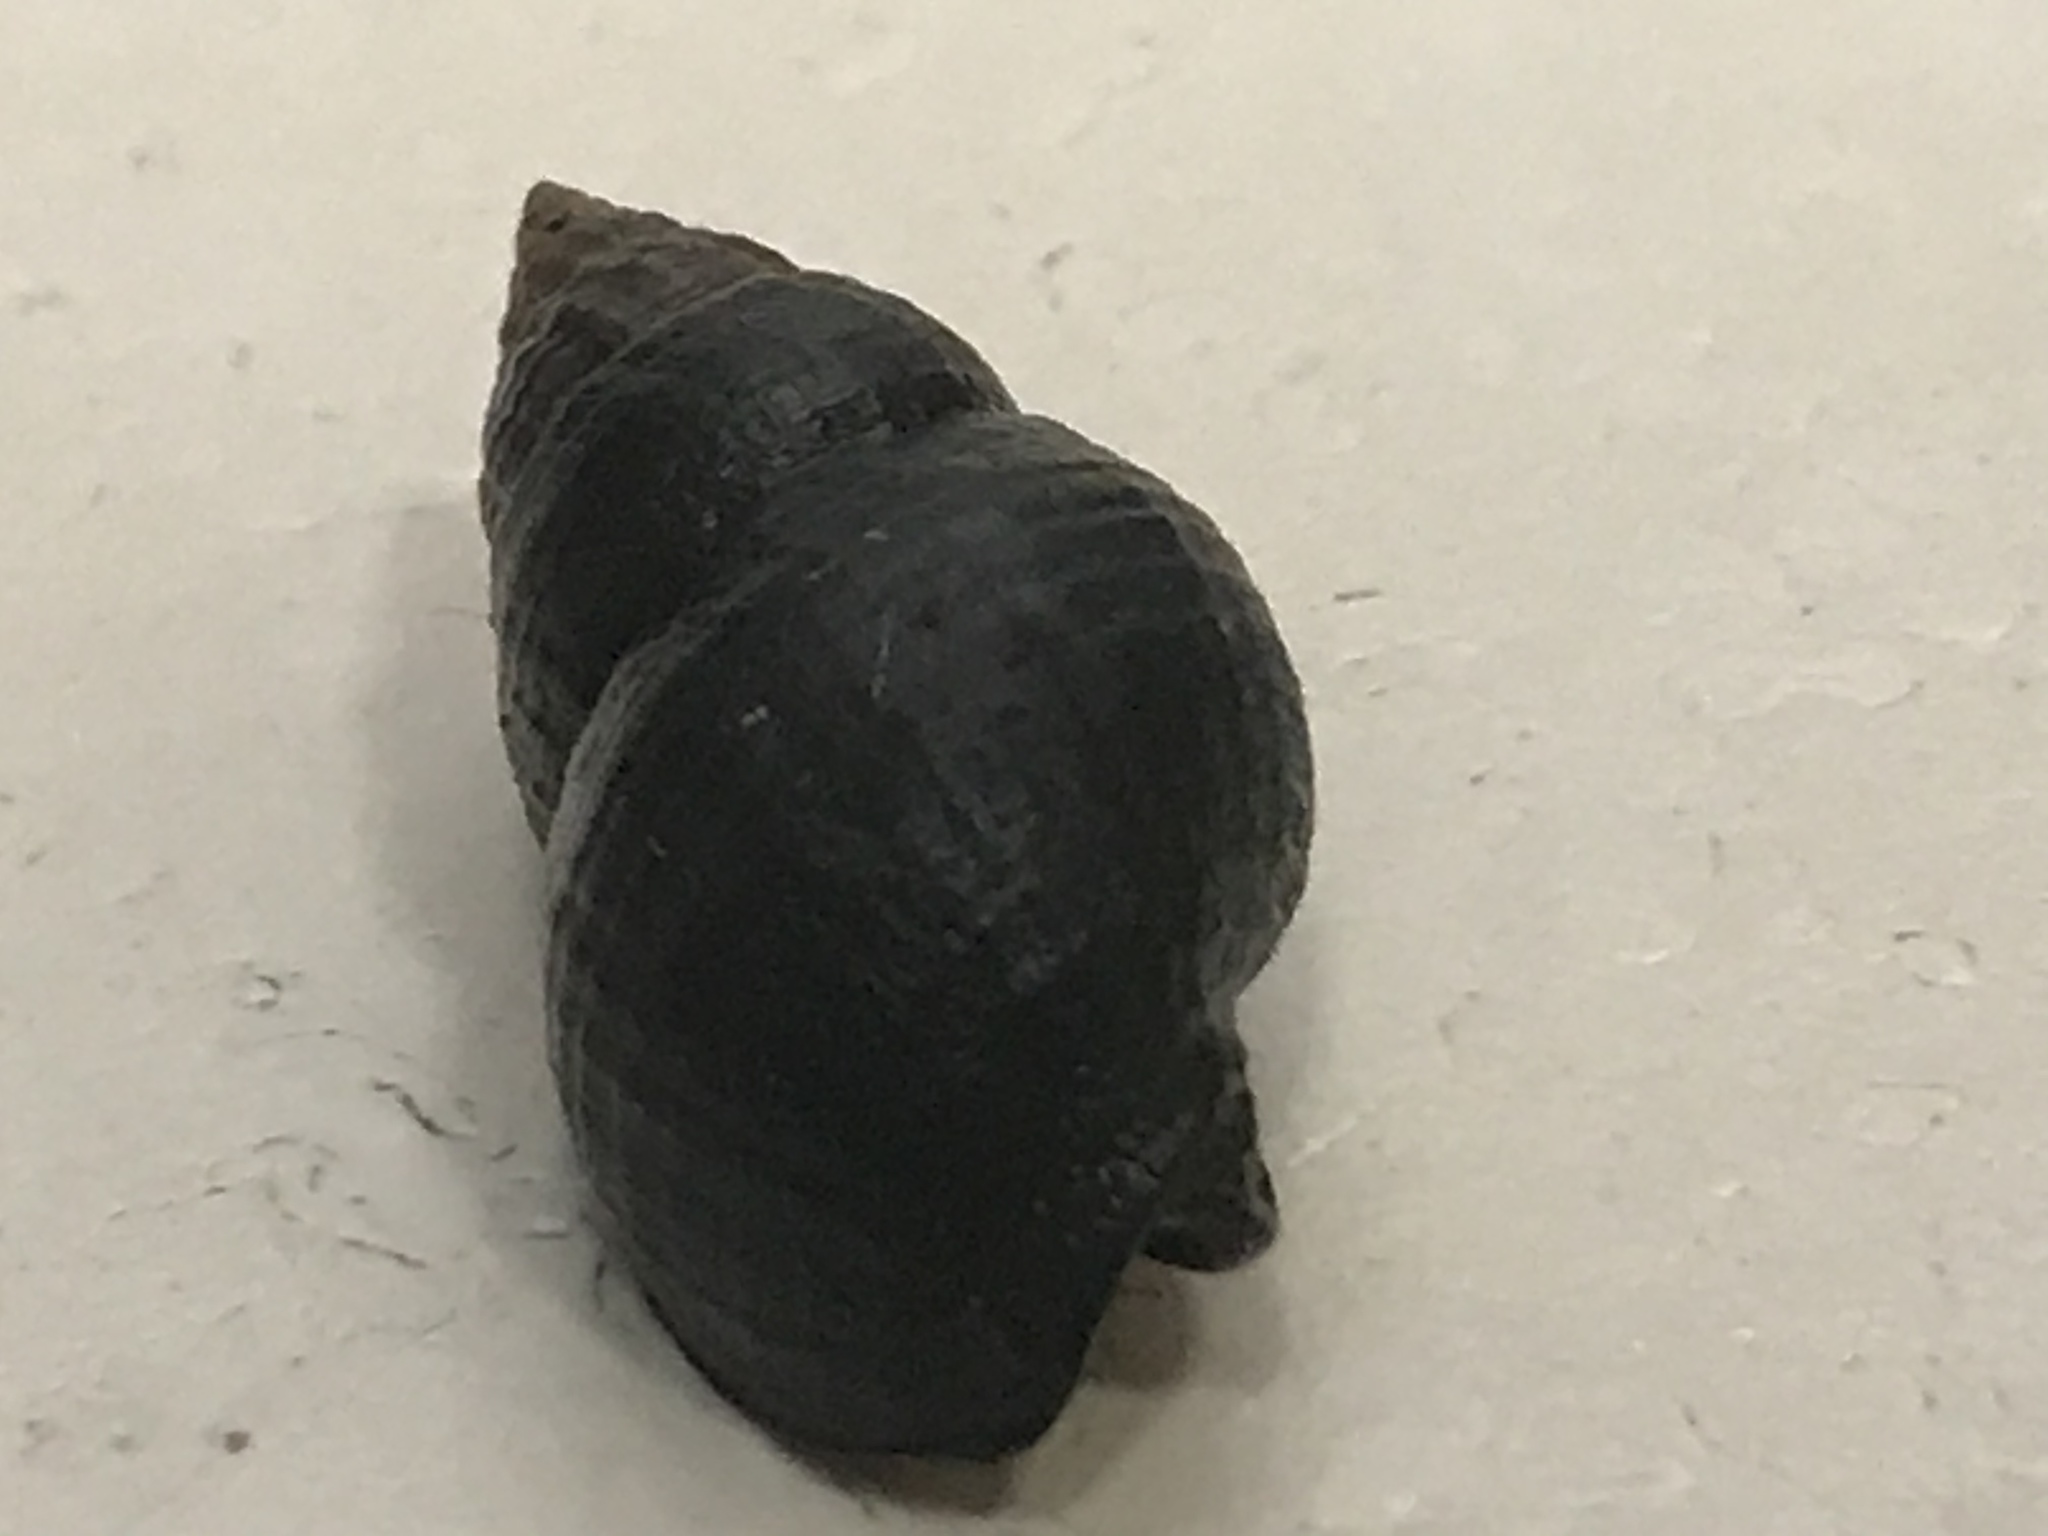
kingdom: Animalia
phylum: Mollusca
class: Gastropoda
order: Neogastropoda
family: Nassariidae
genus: Ilyanassa
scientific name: Ilyanassa obsoleta
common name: Eastern mudsnail
